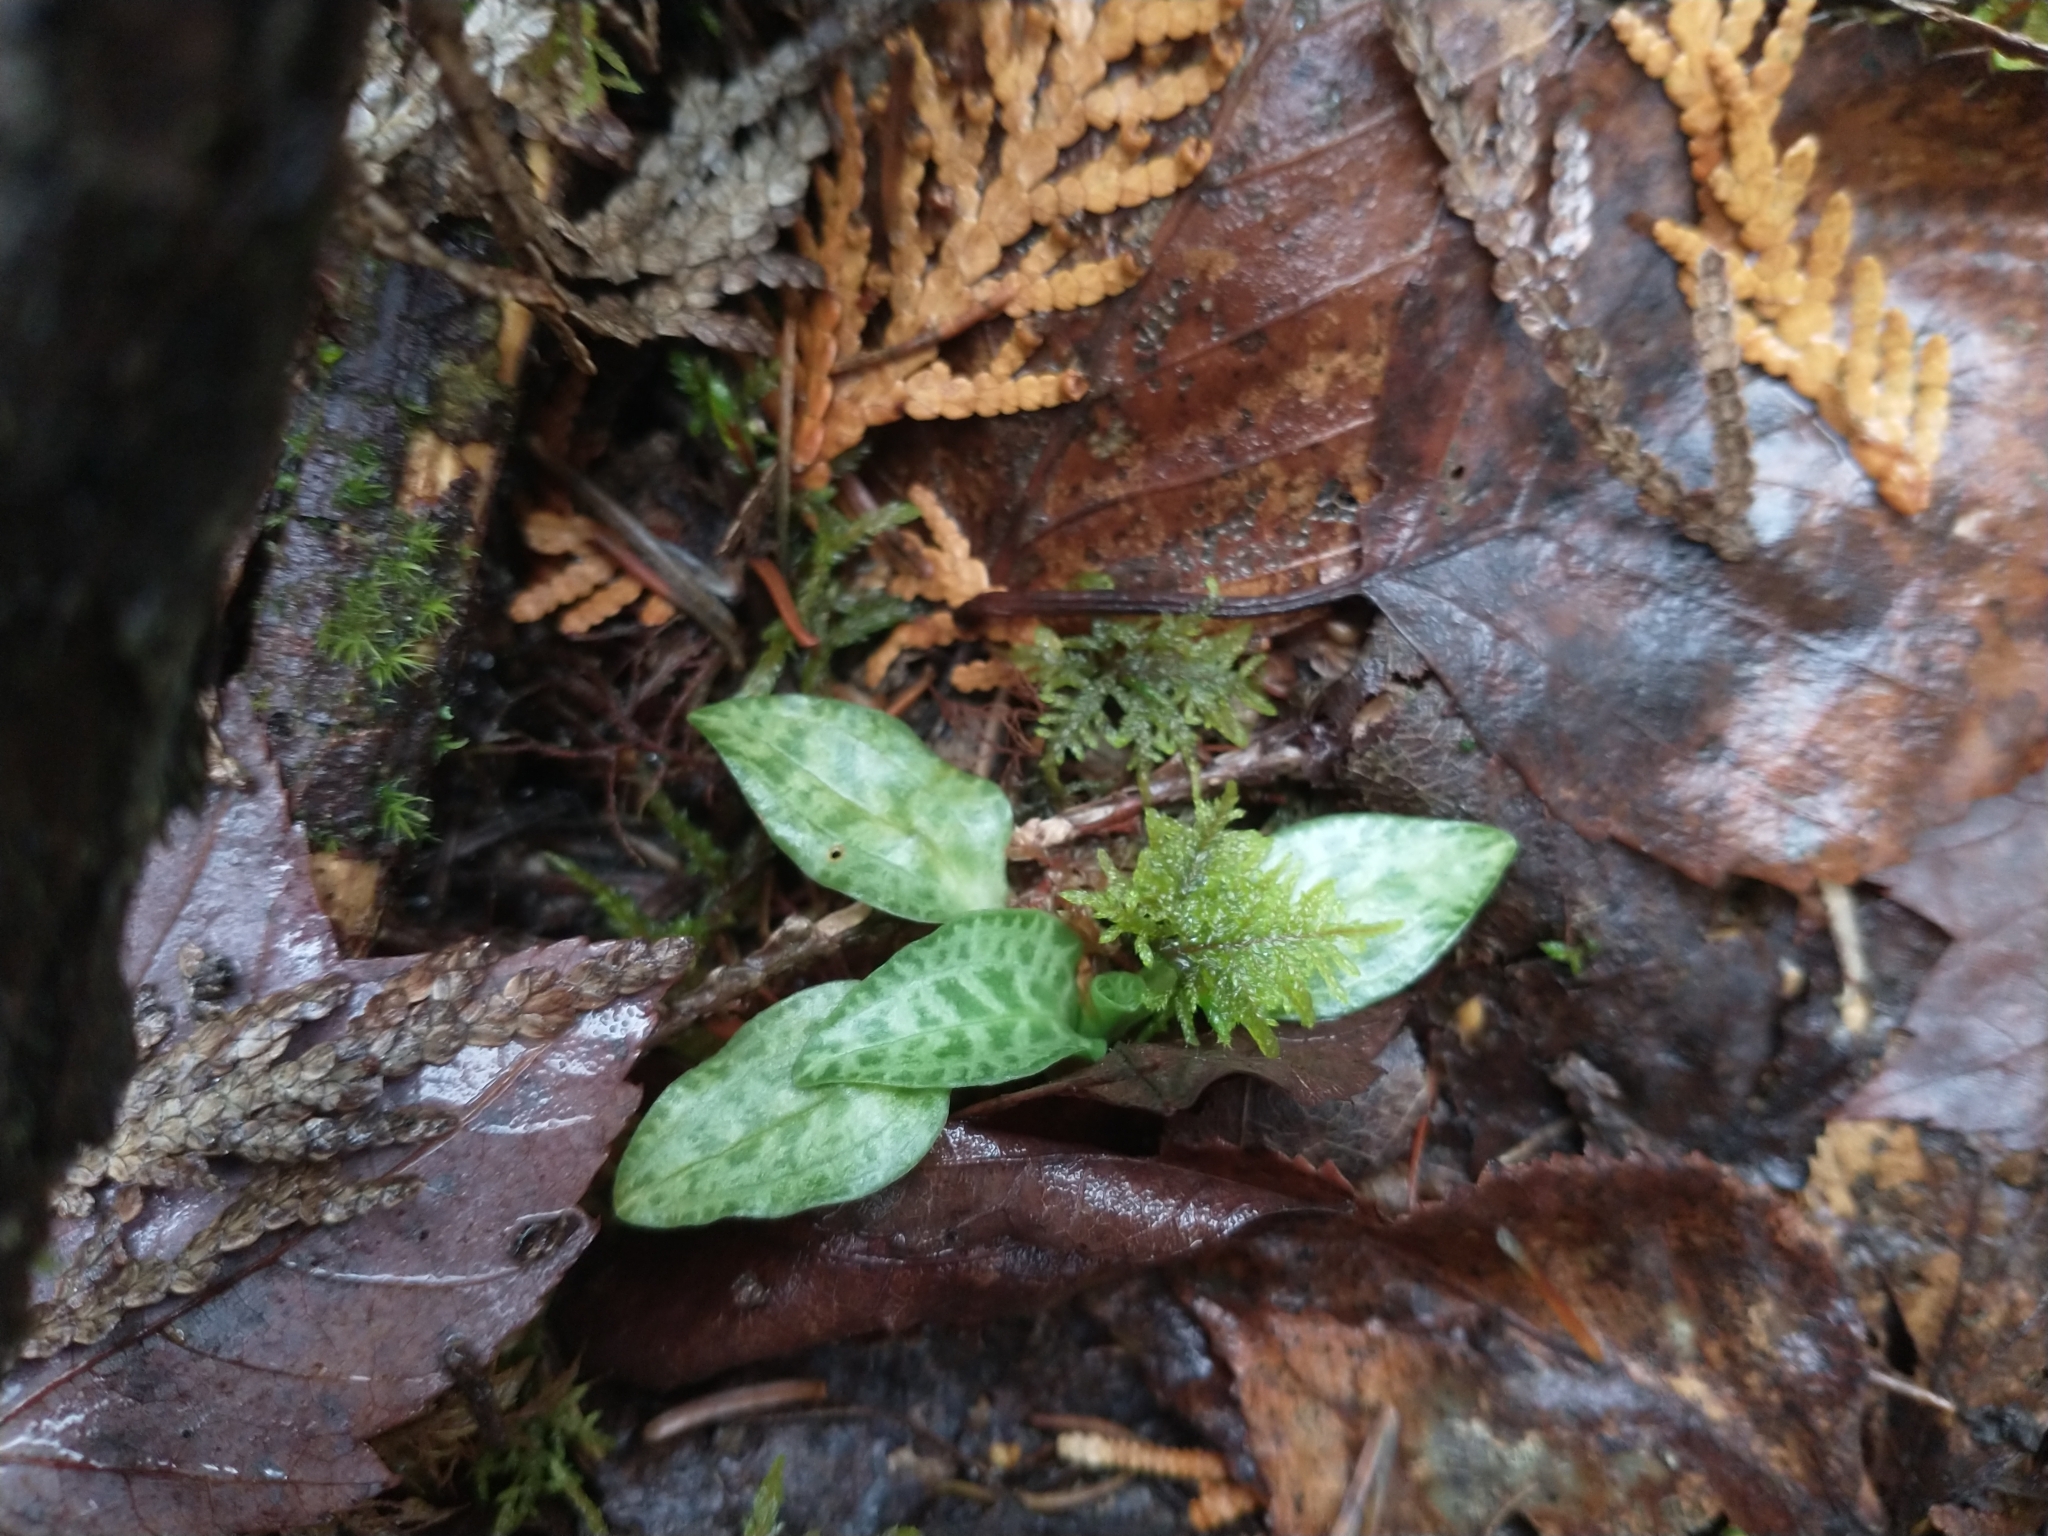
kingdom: Plantae
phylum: Tracheophyta
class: Liliopsida
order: Asparagales
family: Orchidaceae
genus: Goodyera
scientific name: Goodyera tesselata
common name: Checkered rattlesnake-plantain
